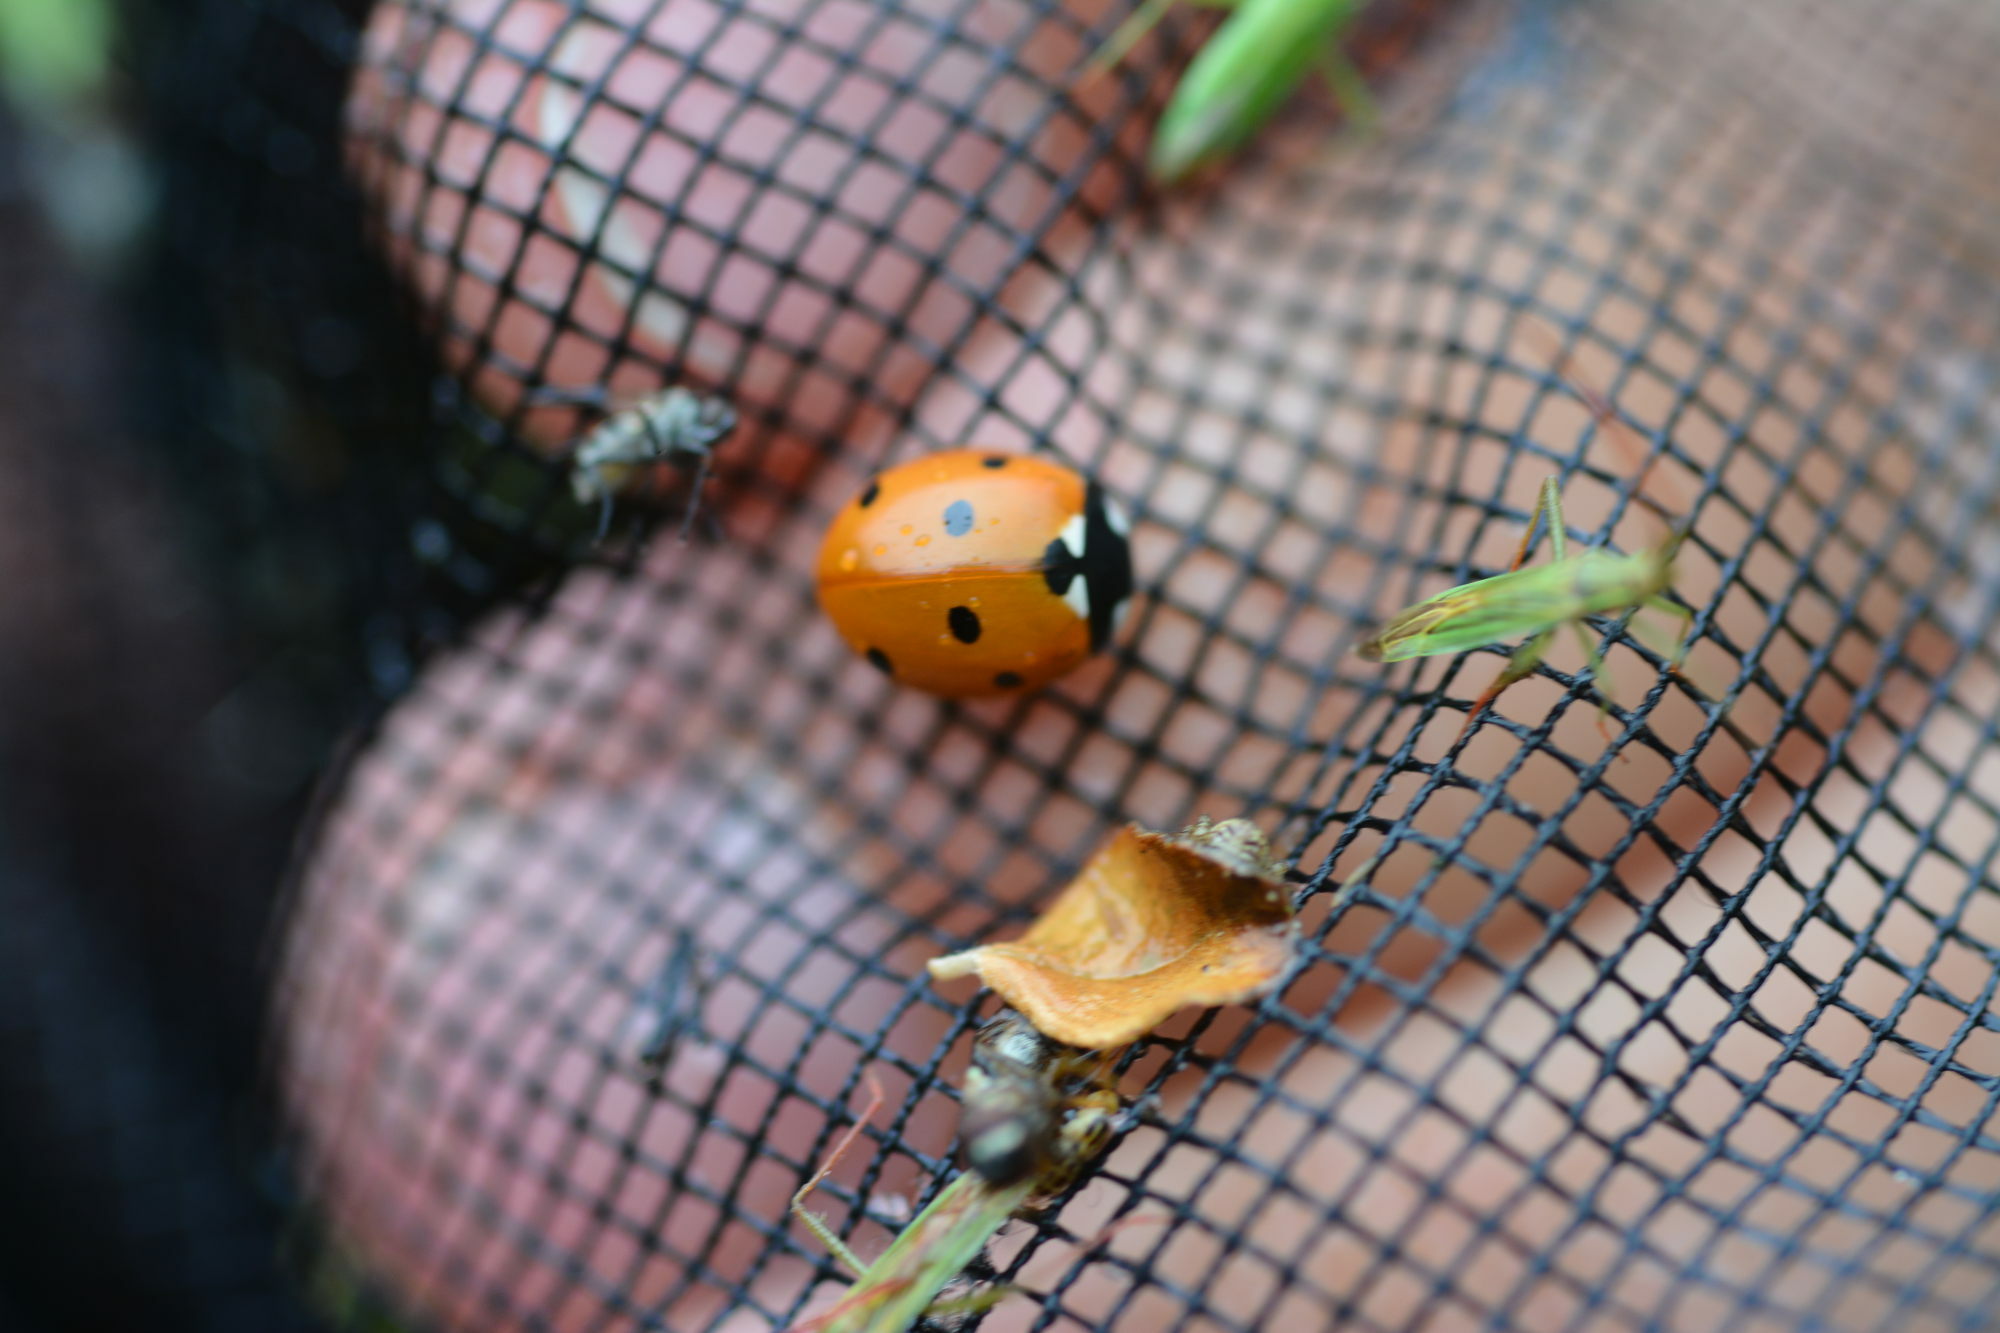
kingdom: Animalia
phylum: Arthropoda
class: Insecta
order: Coleoptera
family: Coccinellidae
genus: Coccinella
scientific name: Coccinella septempunctata
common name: Sevenspotted lady beetle
